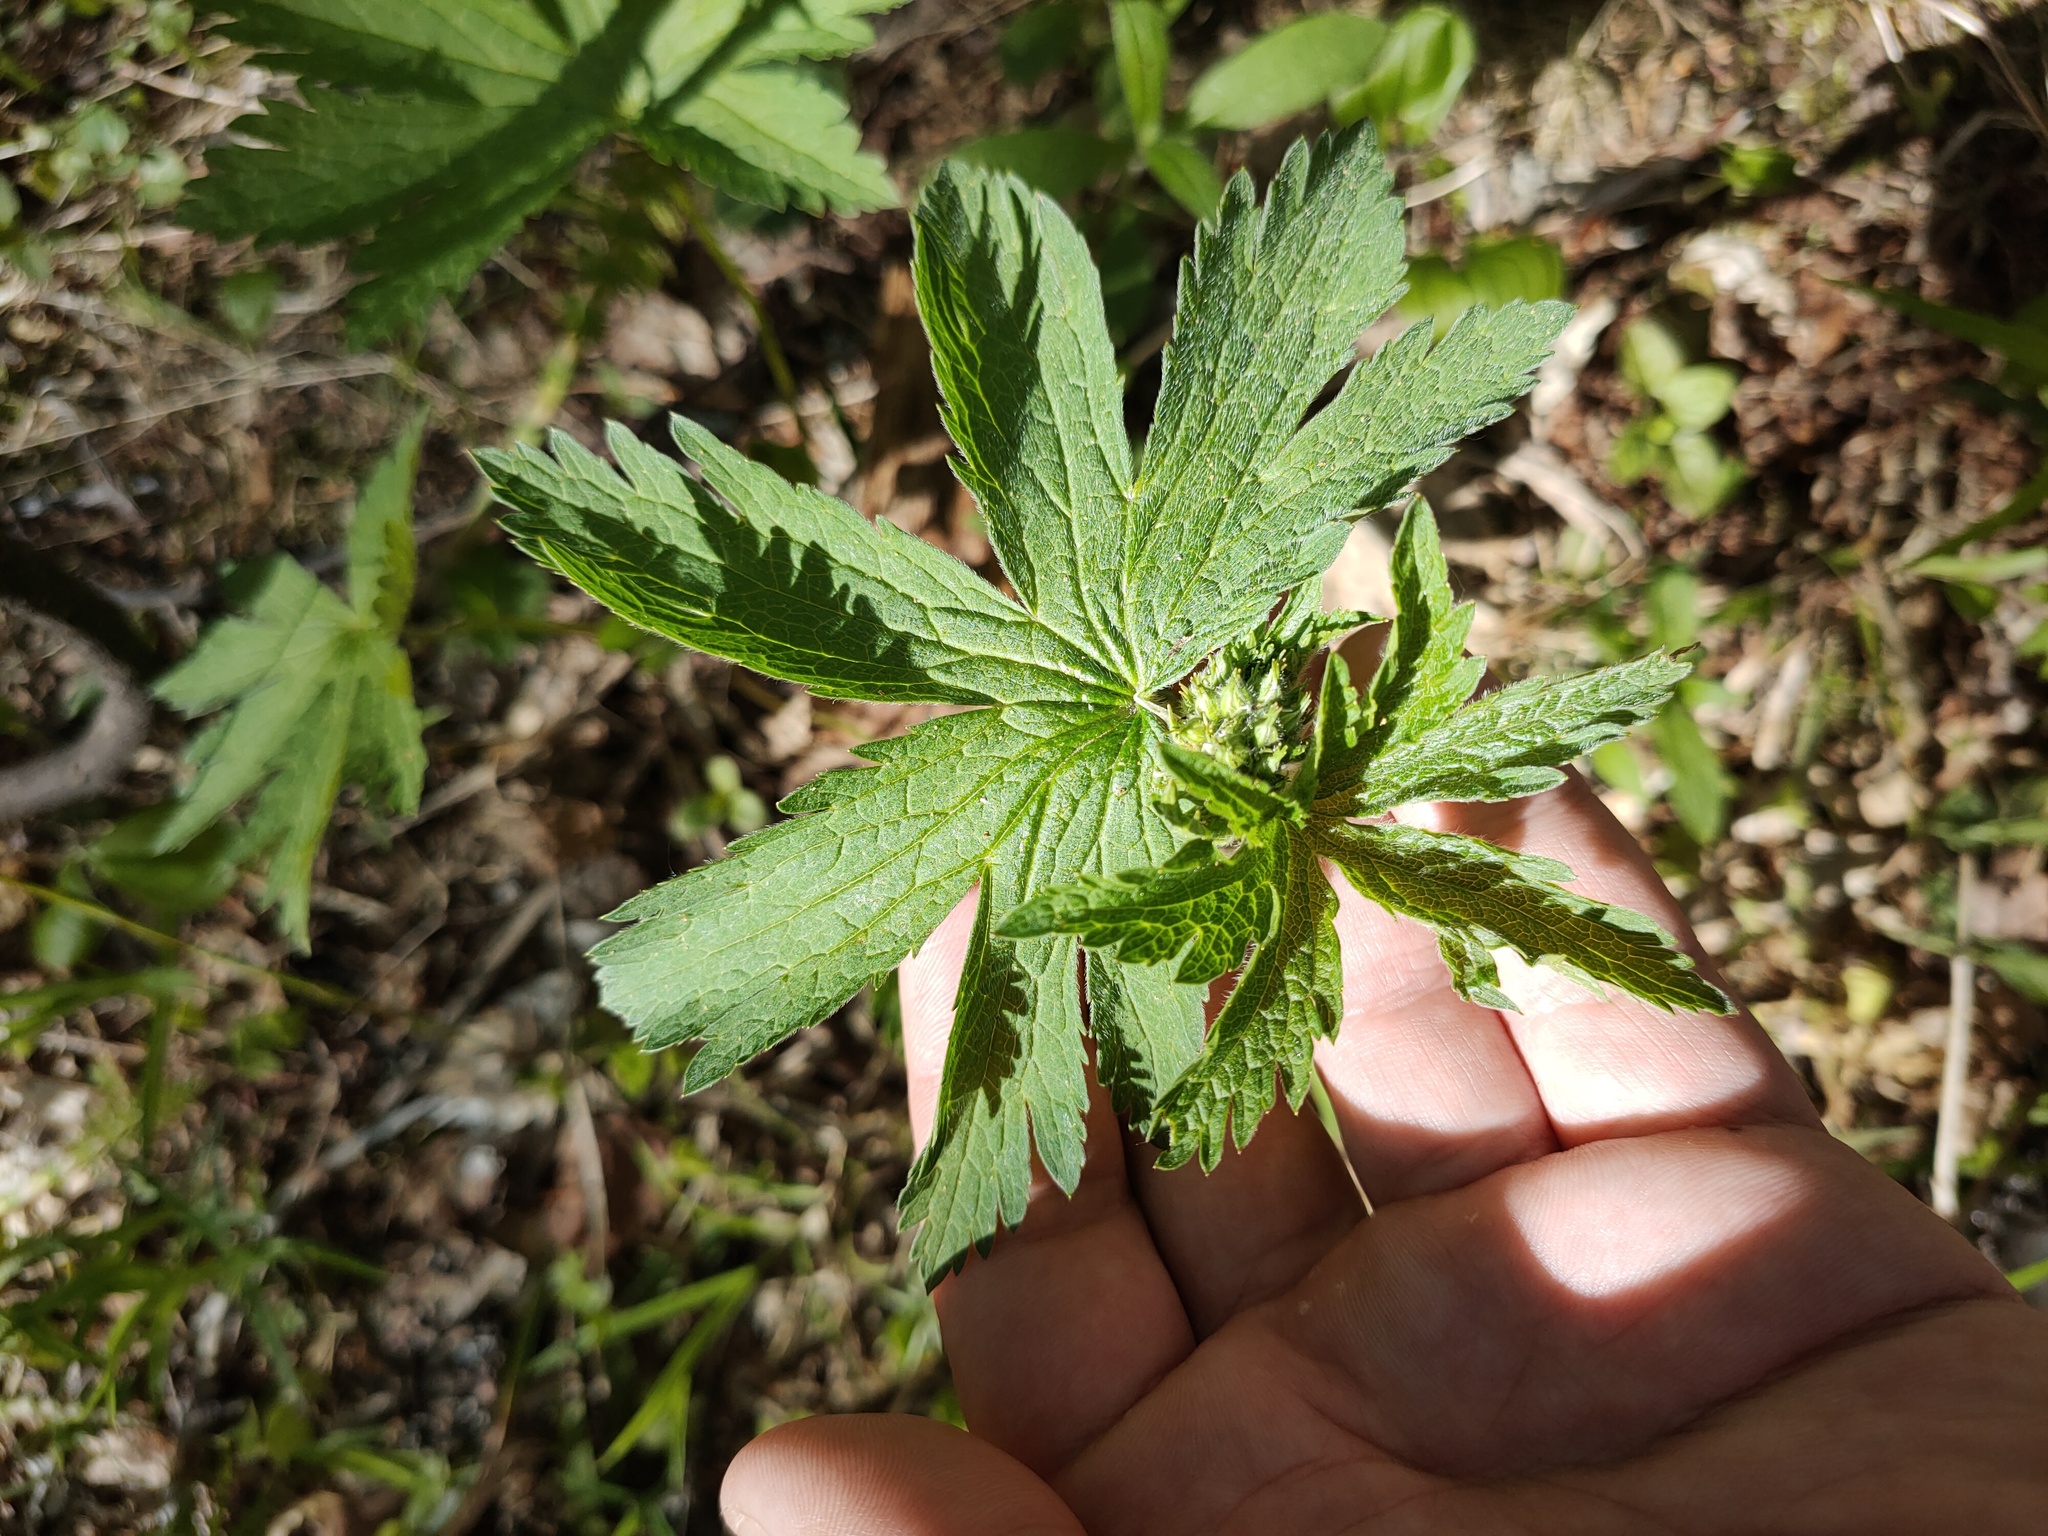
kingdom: Plantae
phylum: Tracheophyta
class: Magnoliopsida
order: Geraniales
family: Geraniaceae
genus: Geranium
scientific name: Geranium sylvaticum
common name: Wood crane's-bill
